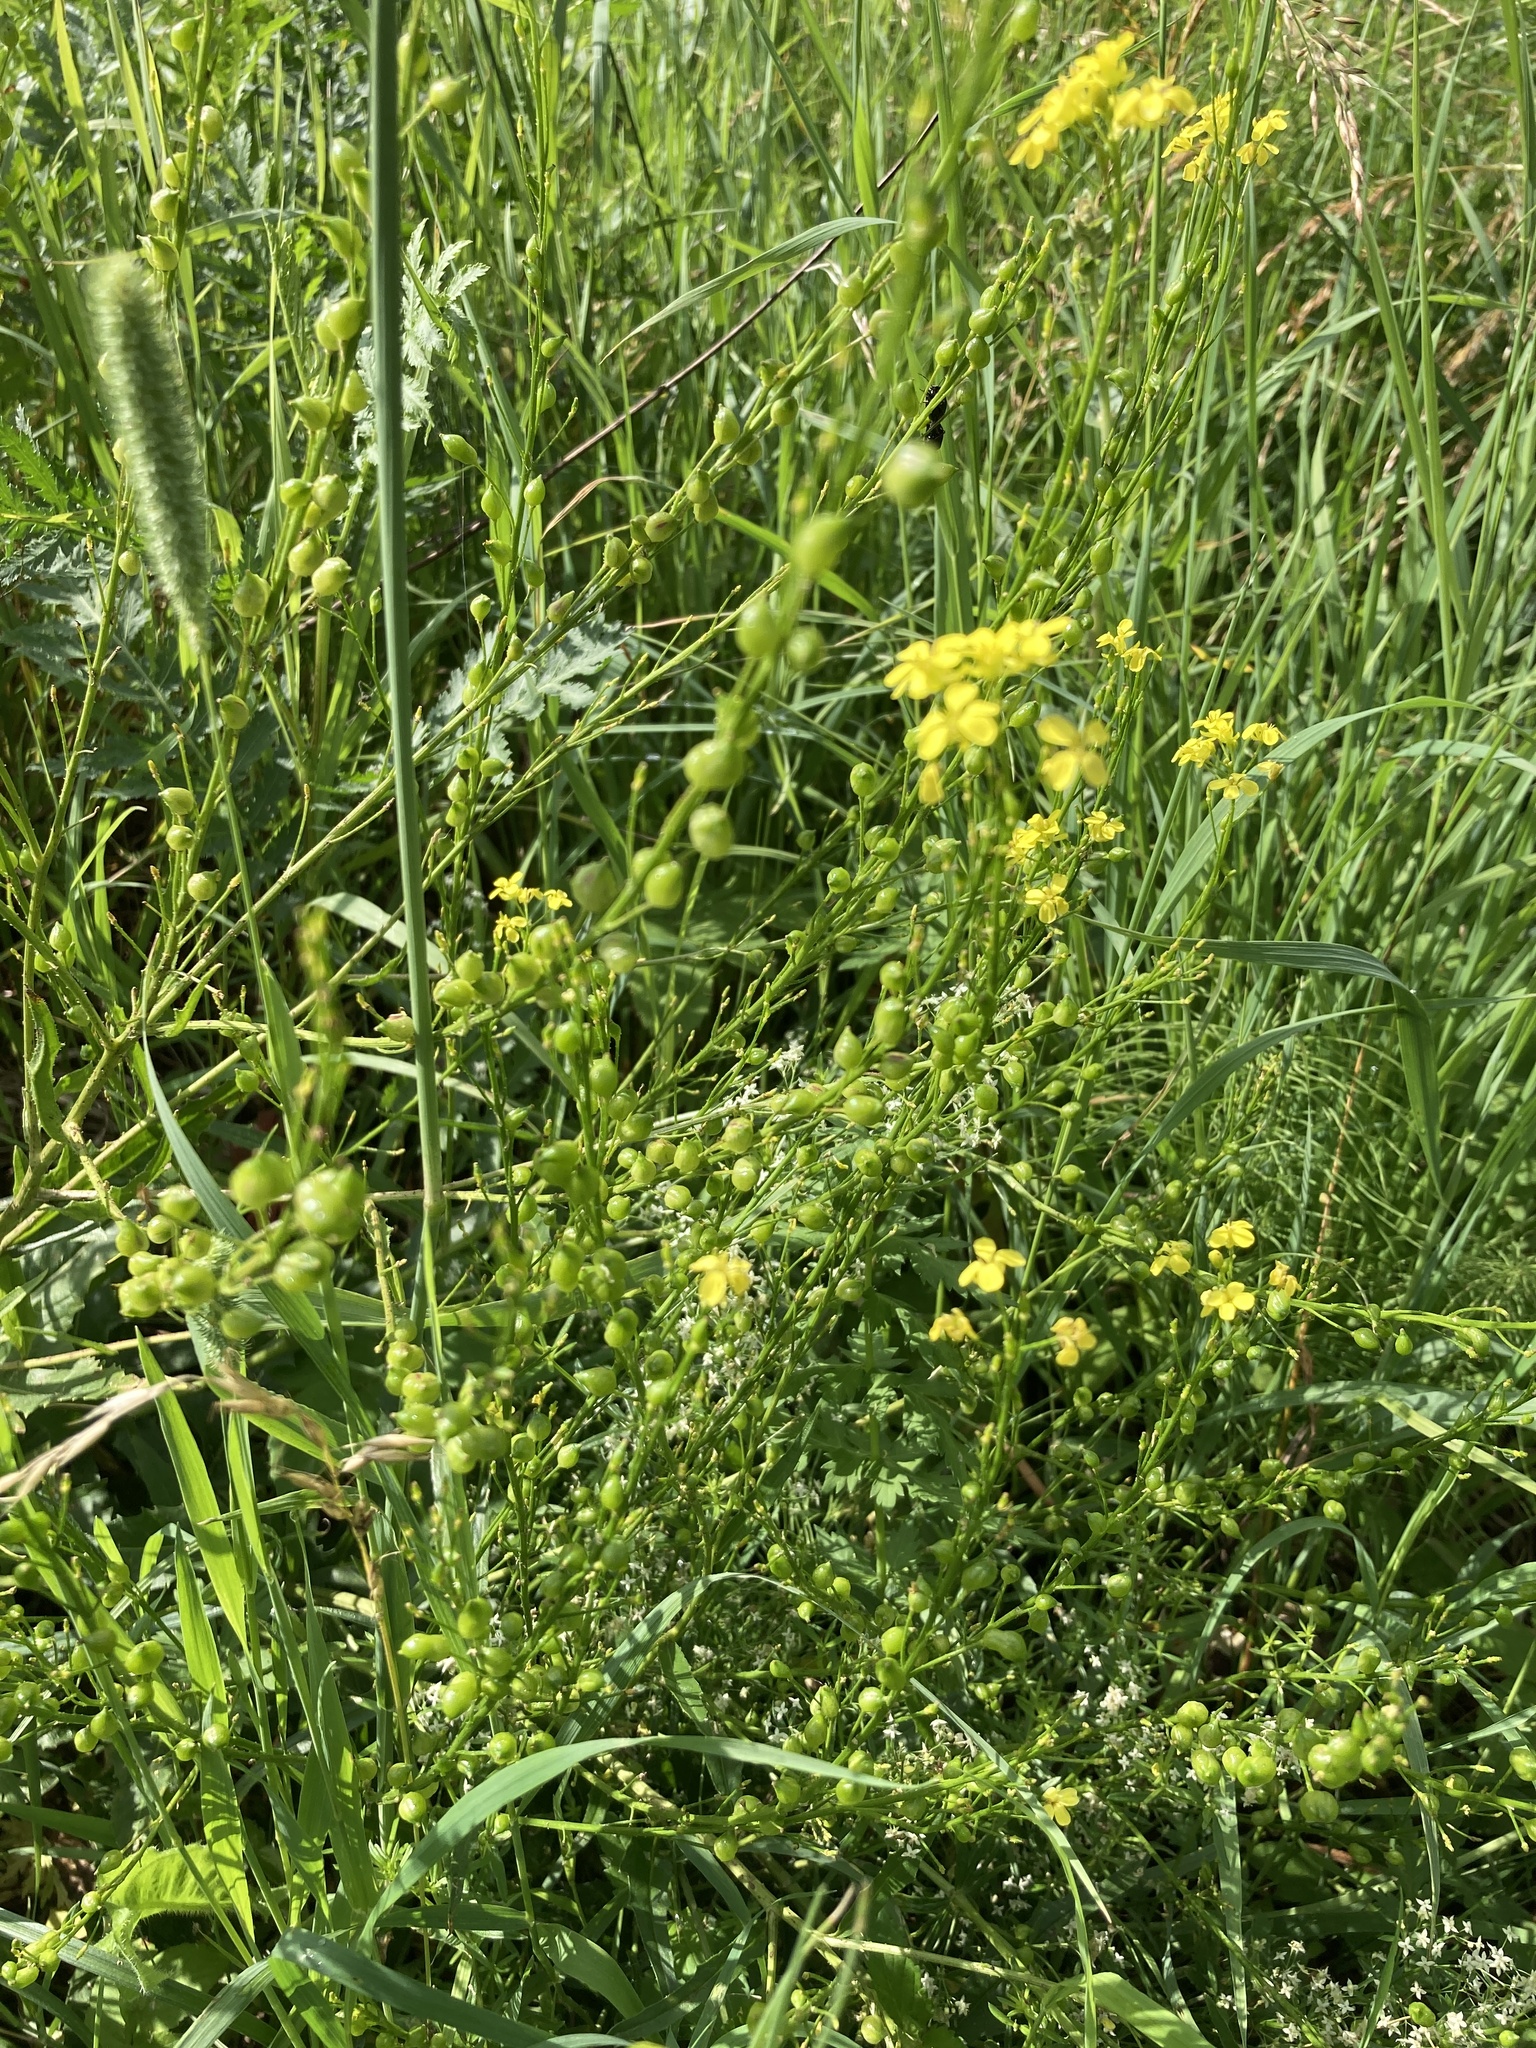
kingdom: Plantae
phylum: Tracheophyta
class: Magnoliopsida
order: Brassicales
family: Brassicaceae
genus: Bunias
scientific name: Bunias orientalis
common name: Warty-cabbage
